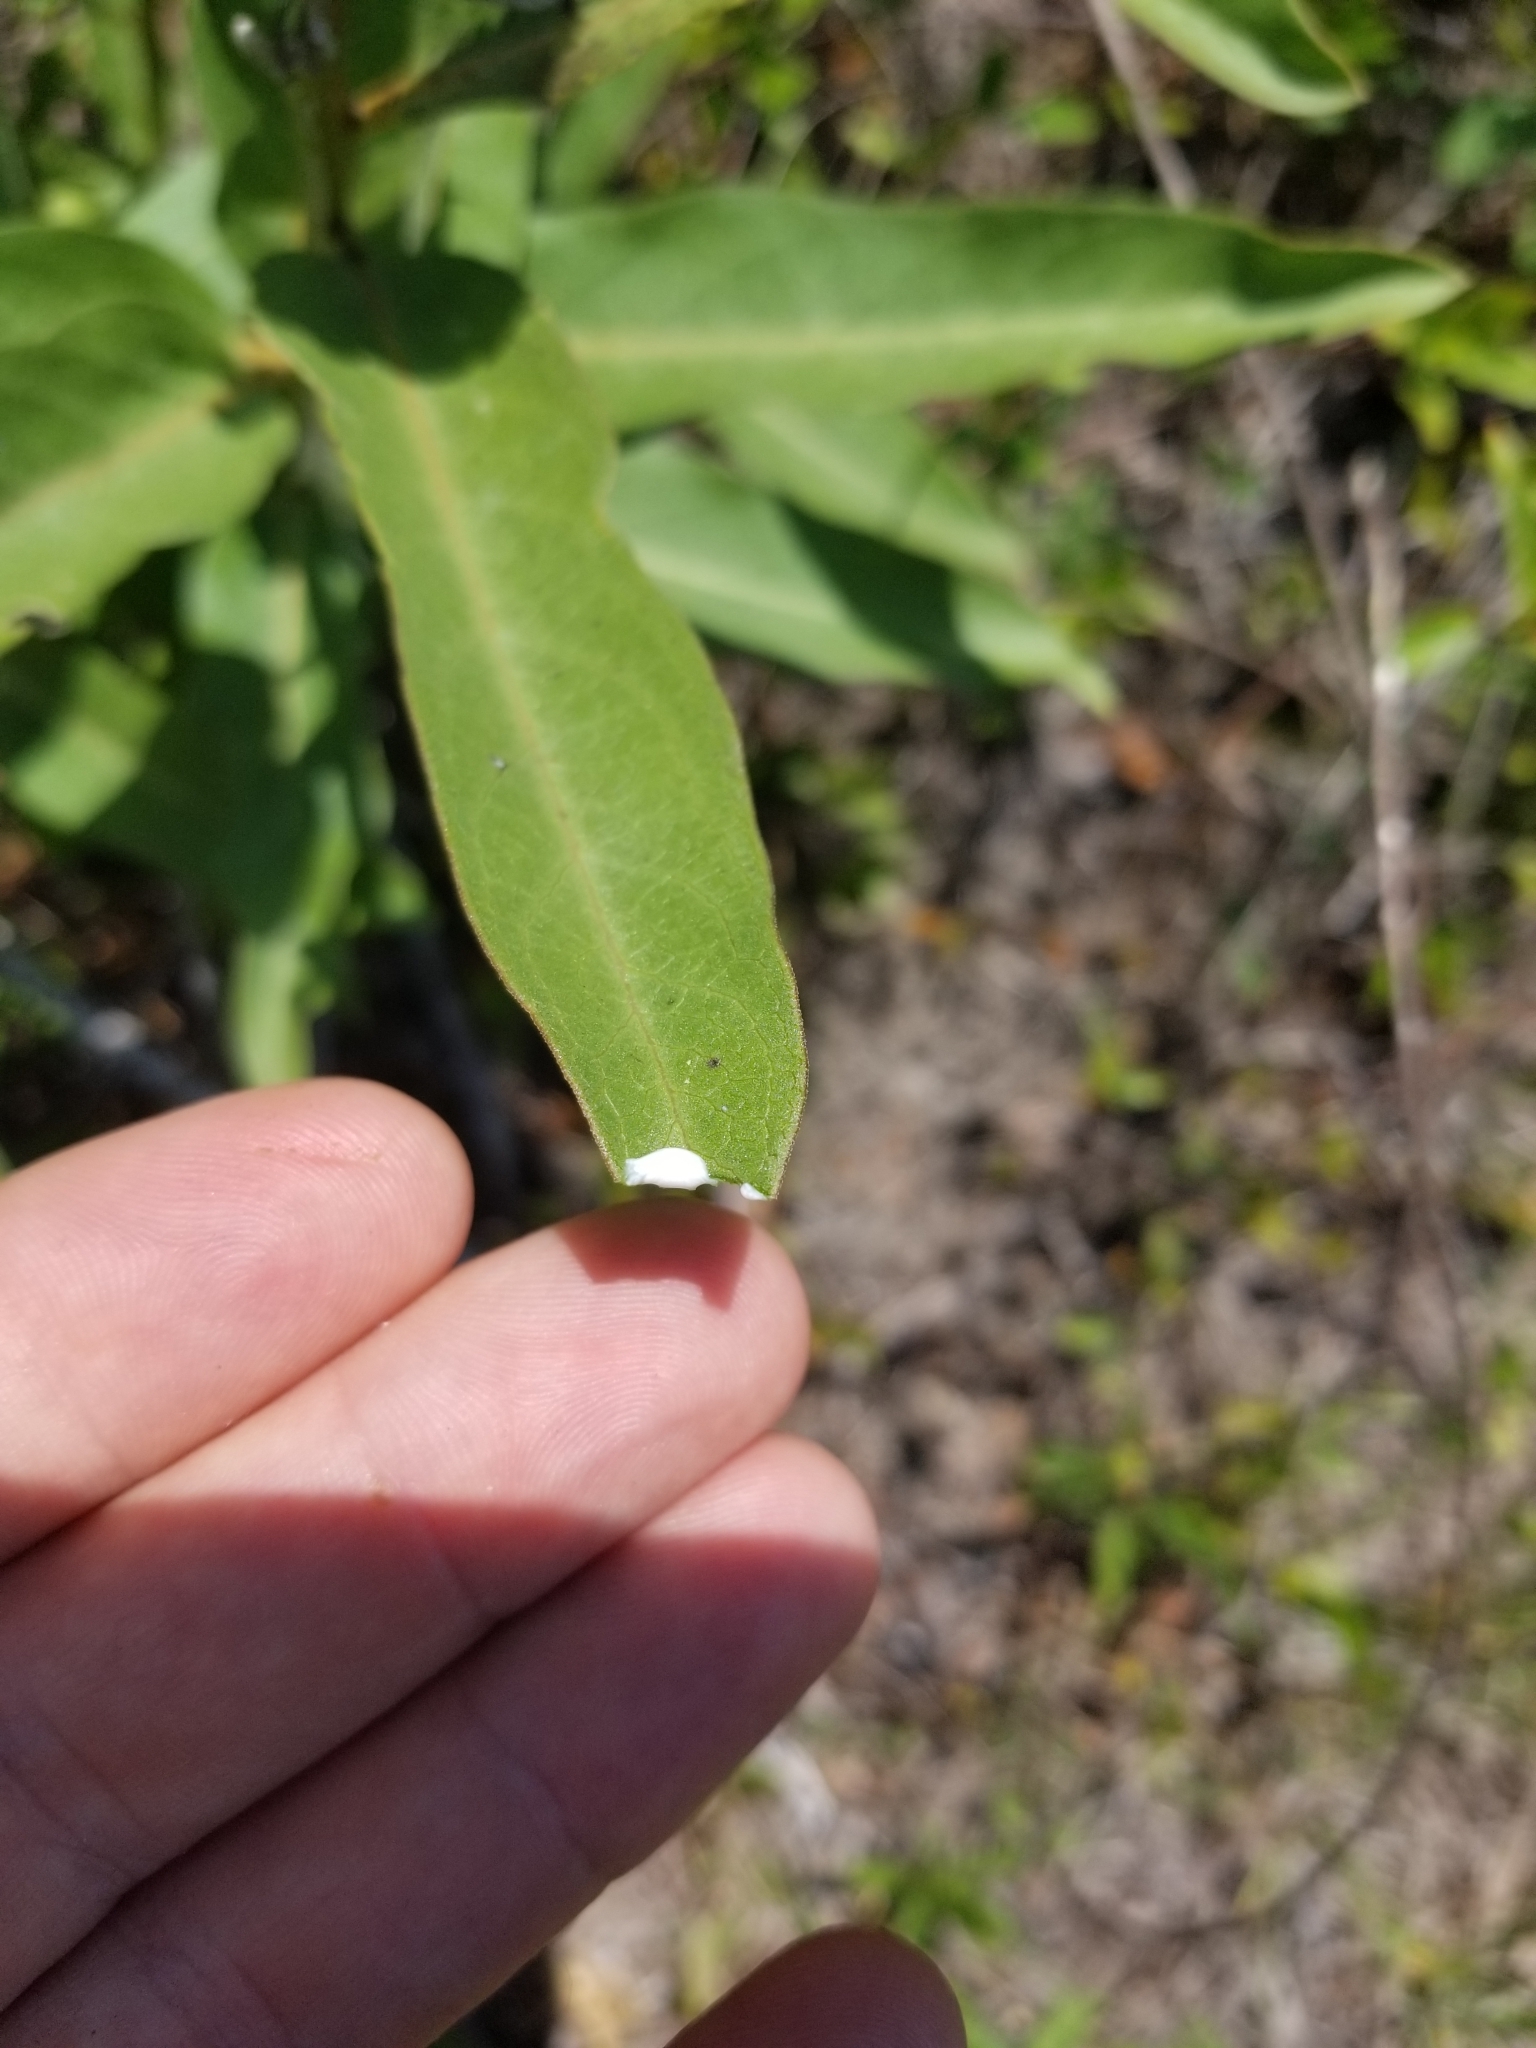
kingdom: Plantae
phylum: Tracheophyta
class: Magnoliopsida
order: Gentianales
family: Apocynaceae
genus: Asclepias
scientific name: Asclepias viridis
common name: Antelope-horns
